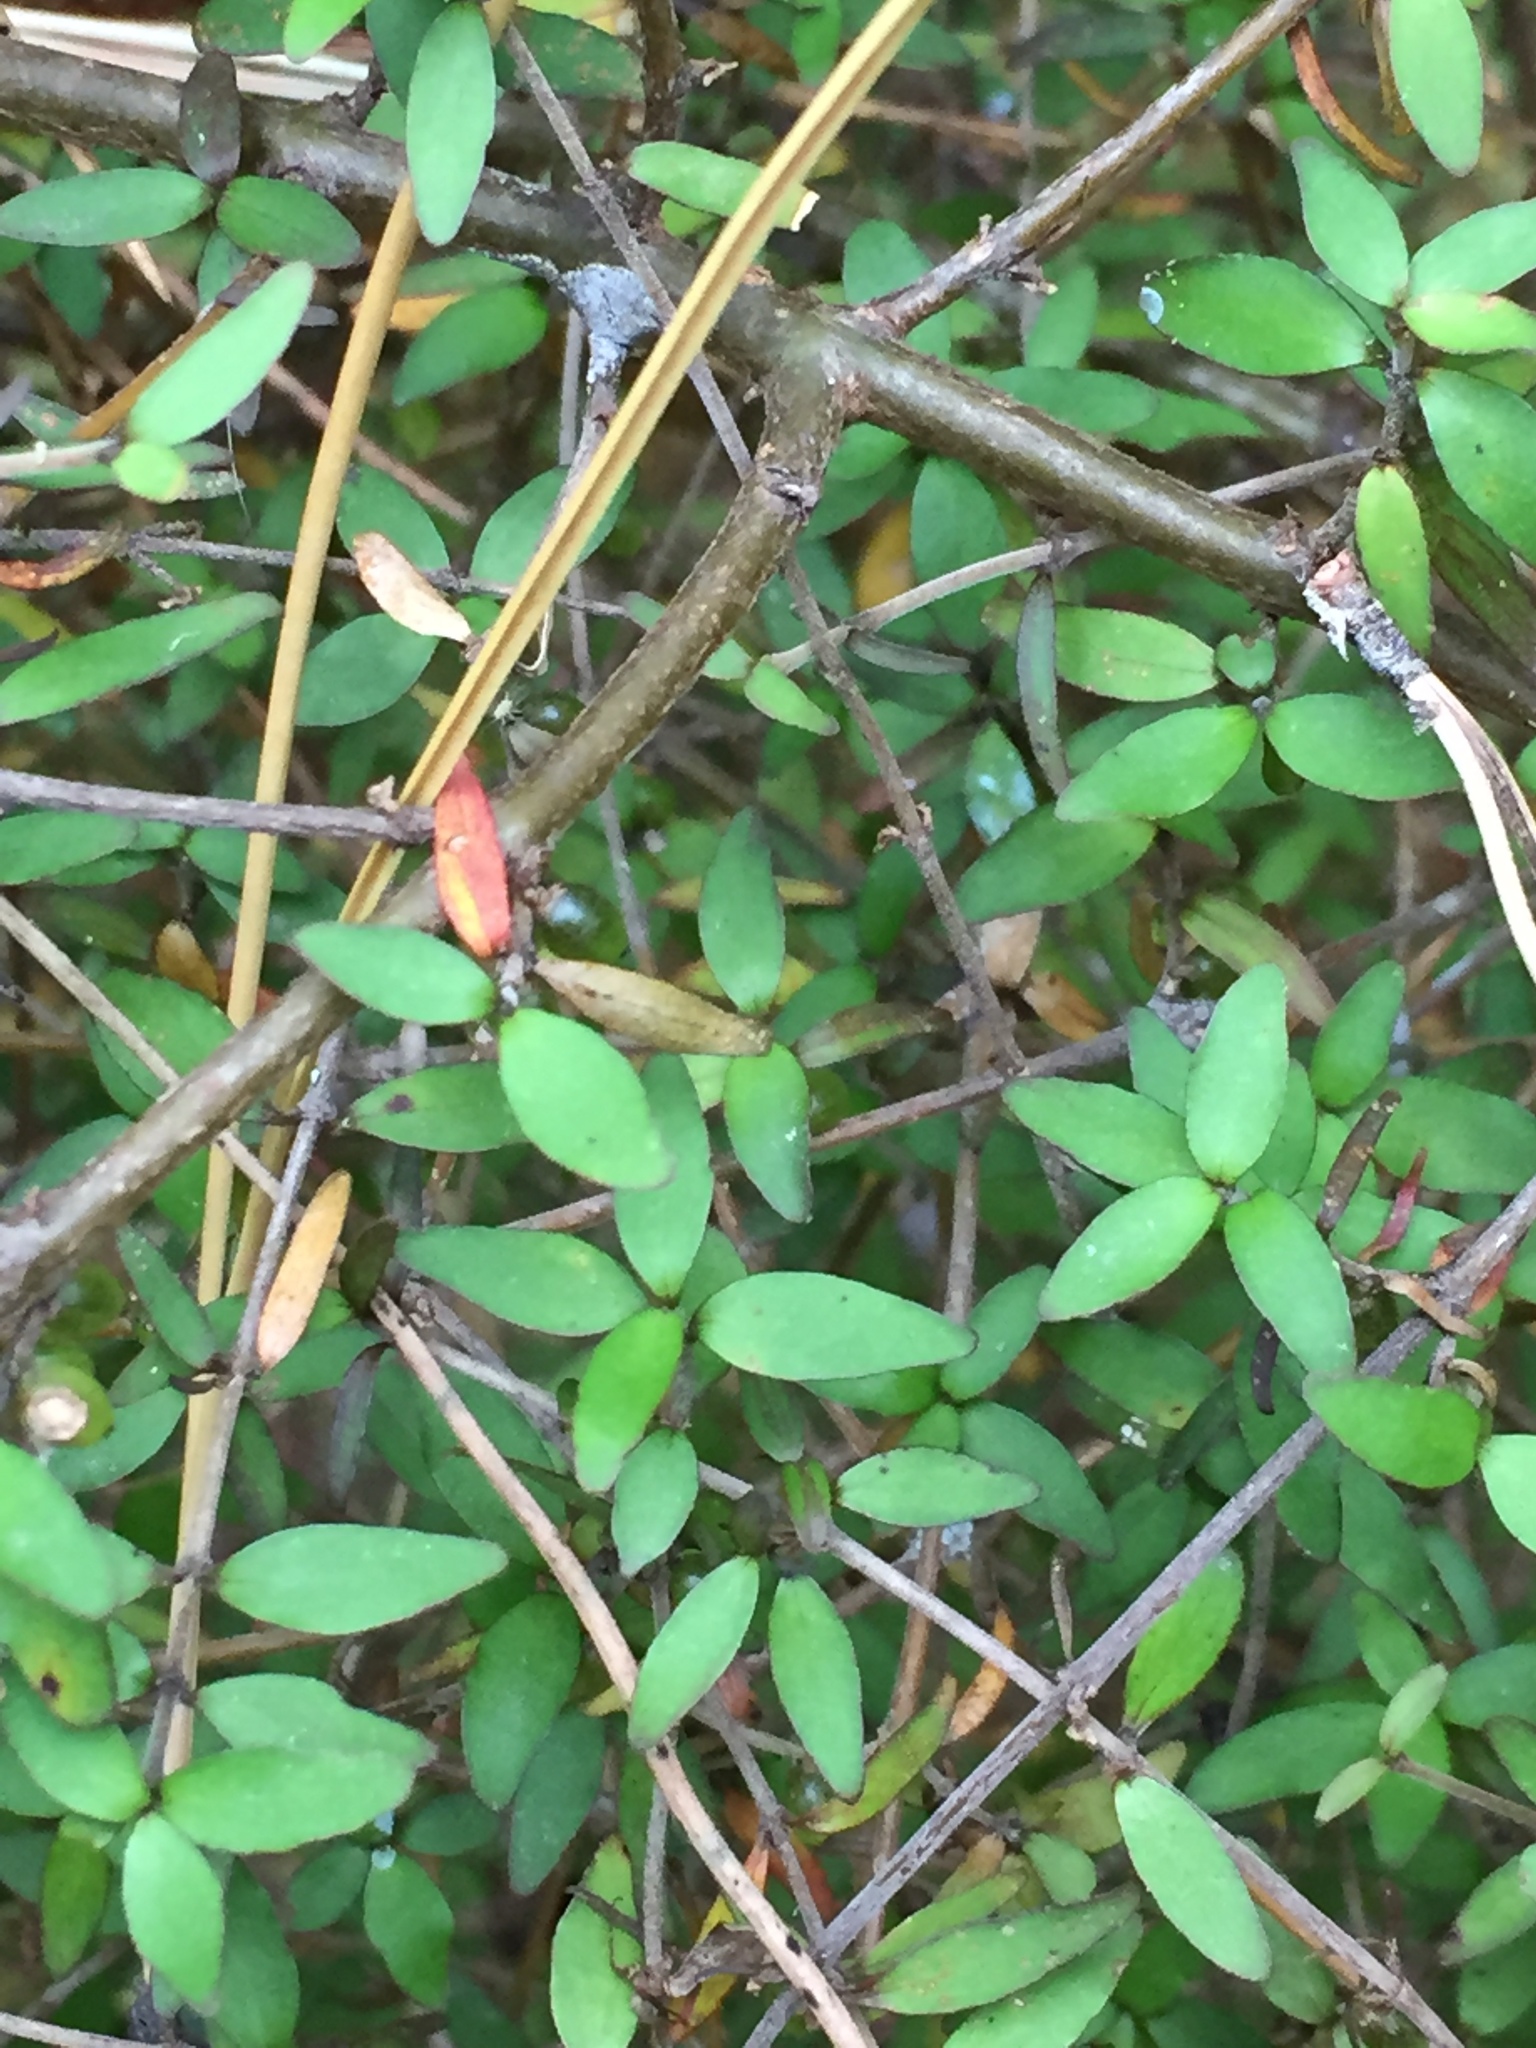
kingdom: Plantae
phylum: Tracheophyta
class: Magnoliopsida
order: Gentianales
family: Rubiaceae
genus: Coprosma
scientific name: Coprosma rhamnoides
